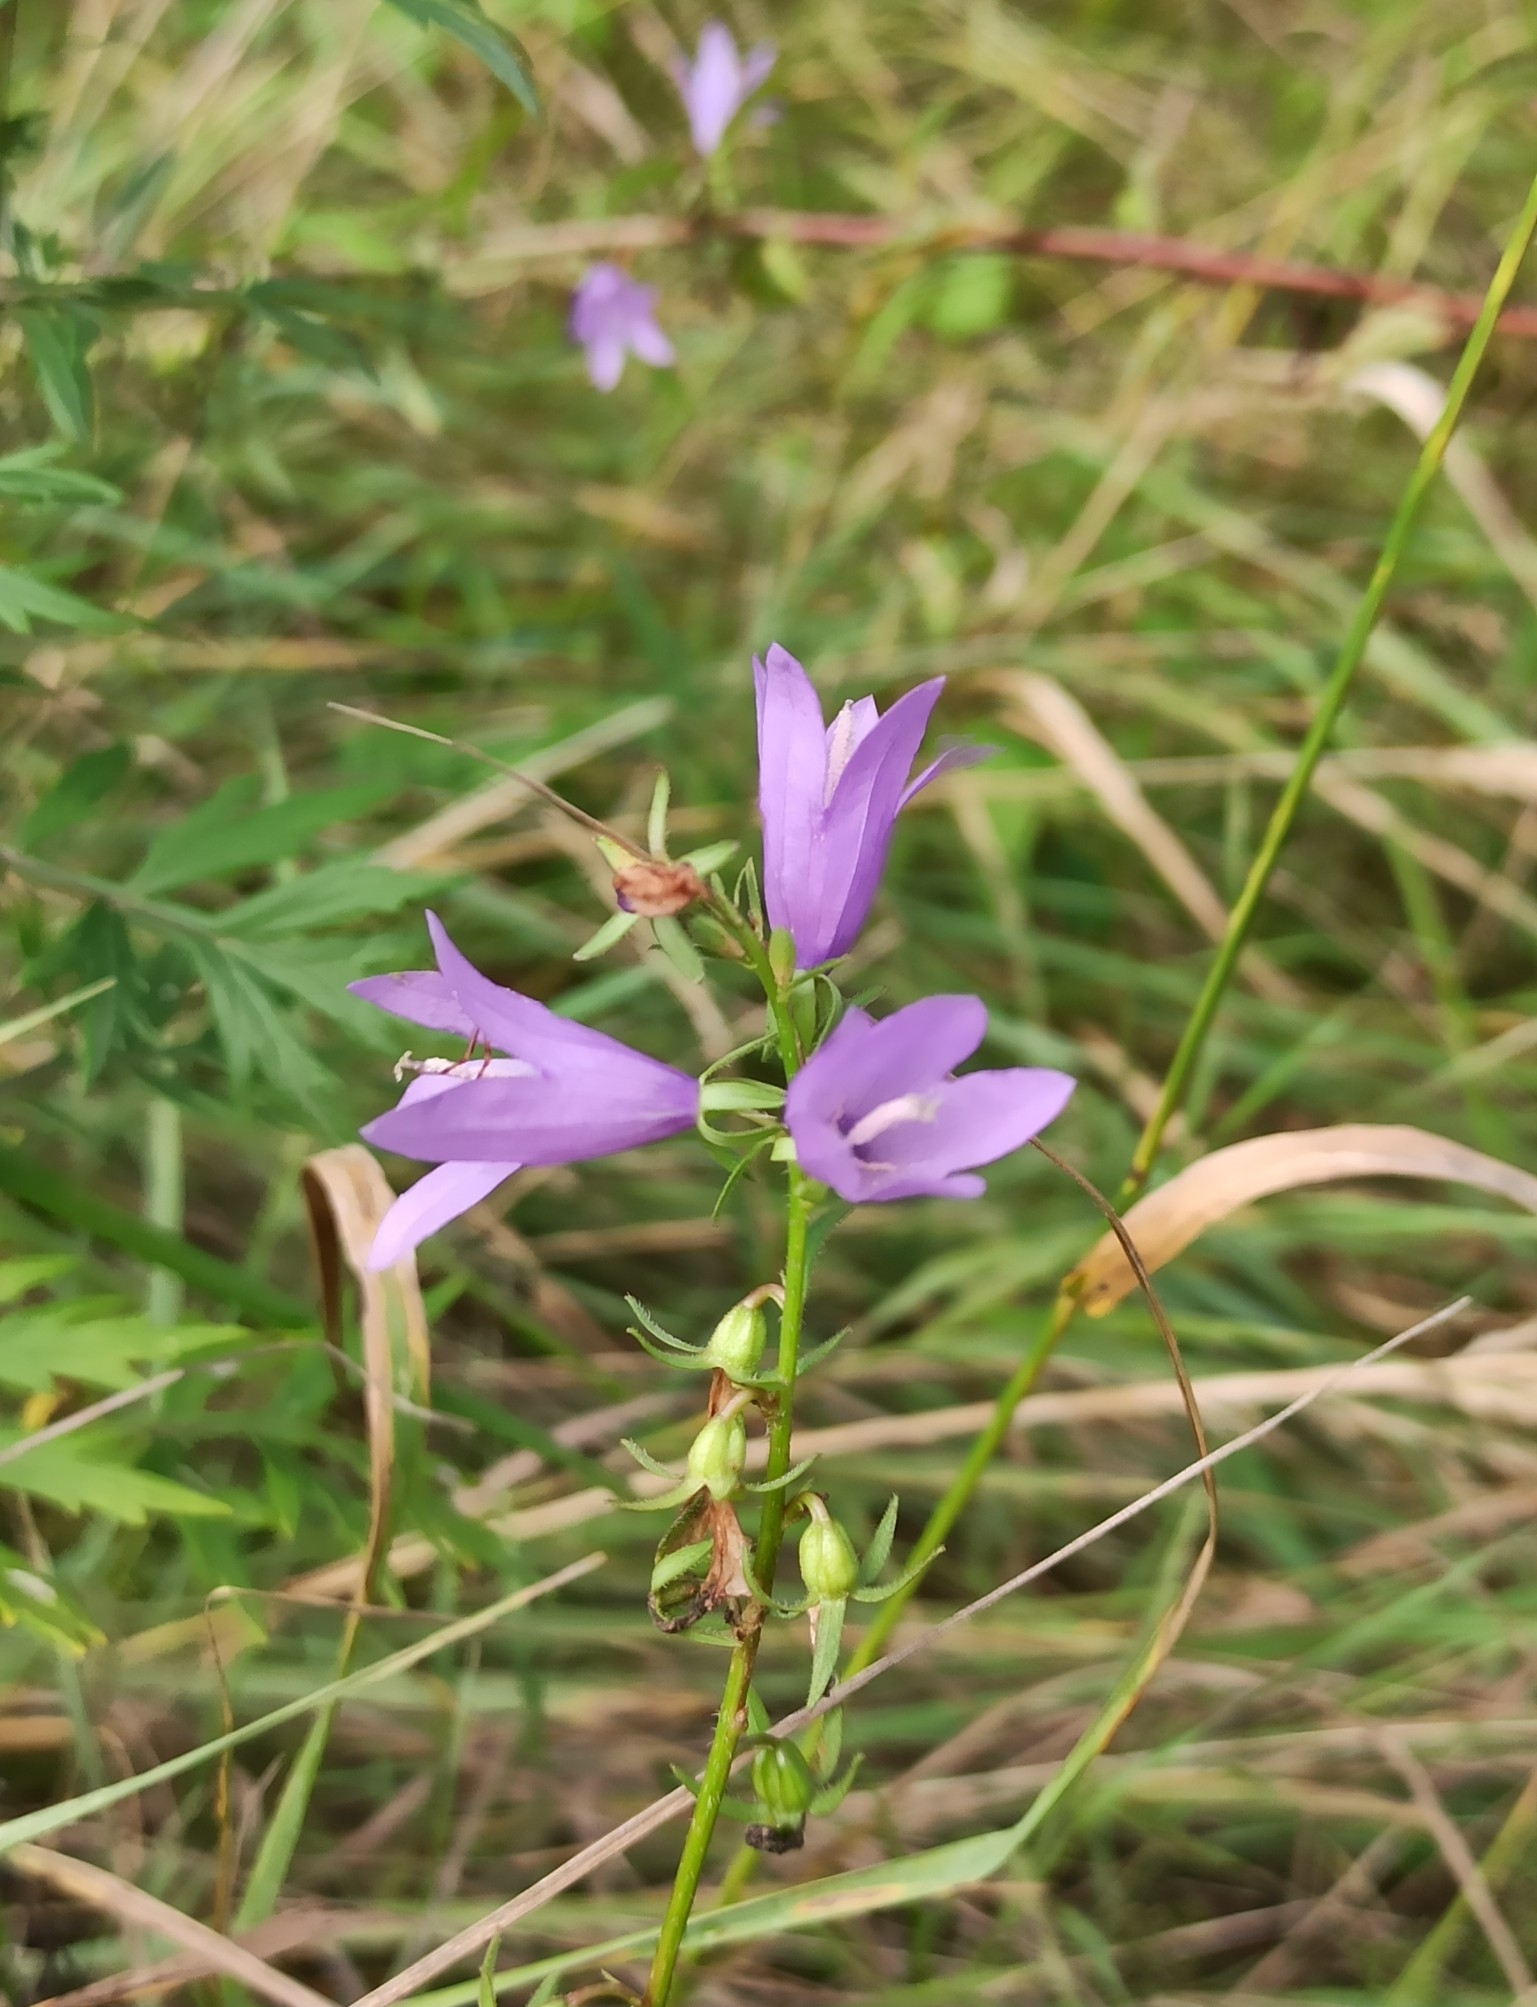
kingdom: Plantae
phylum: Tracheophyta
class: Magnoliopsida
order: Asterales
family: Campanulaceae
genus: Campanula
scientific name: Campanula rapunculoides
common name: Creeping bellflower
